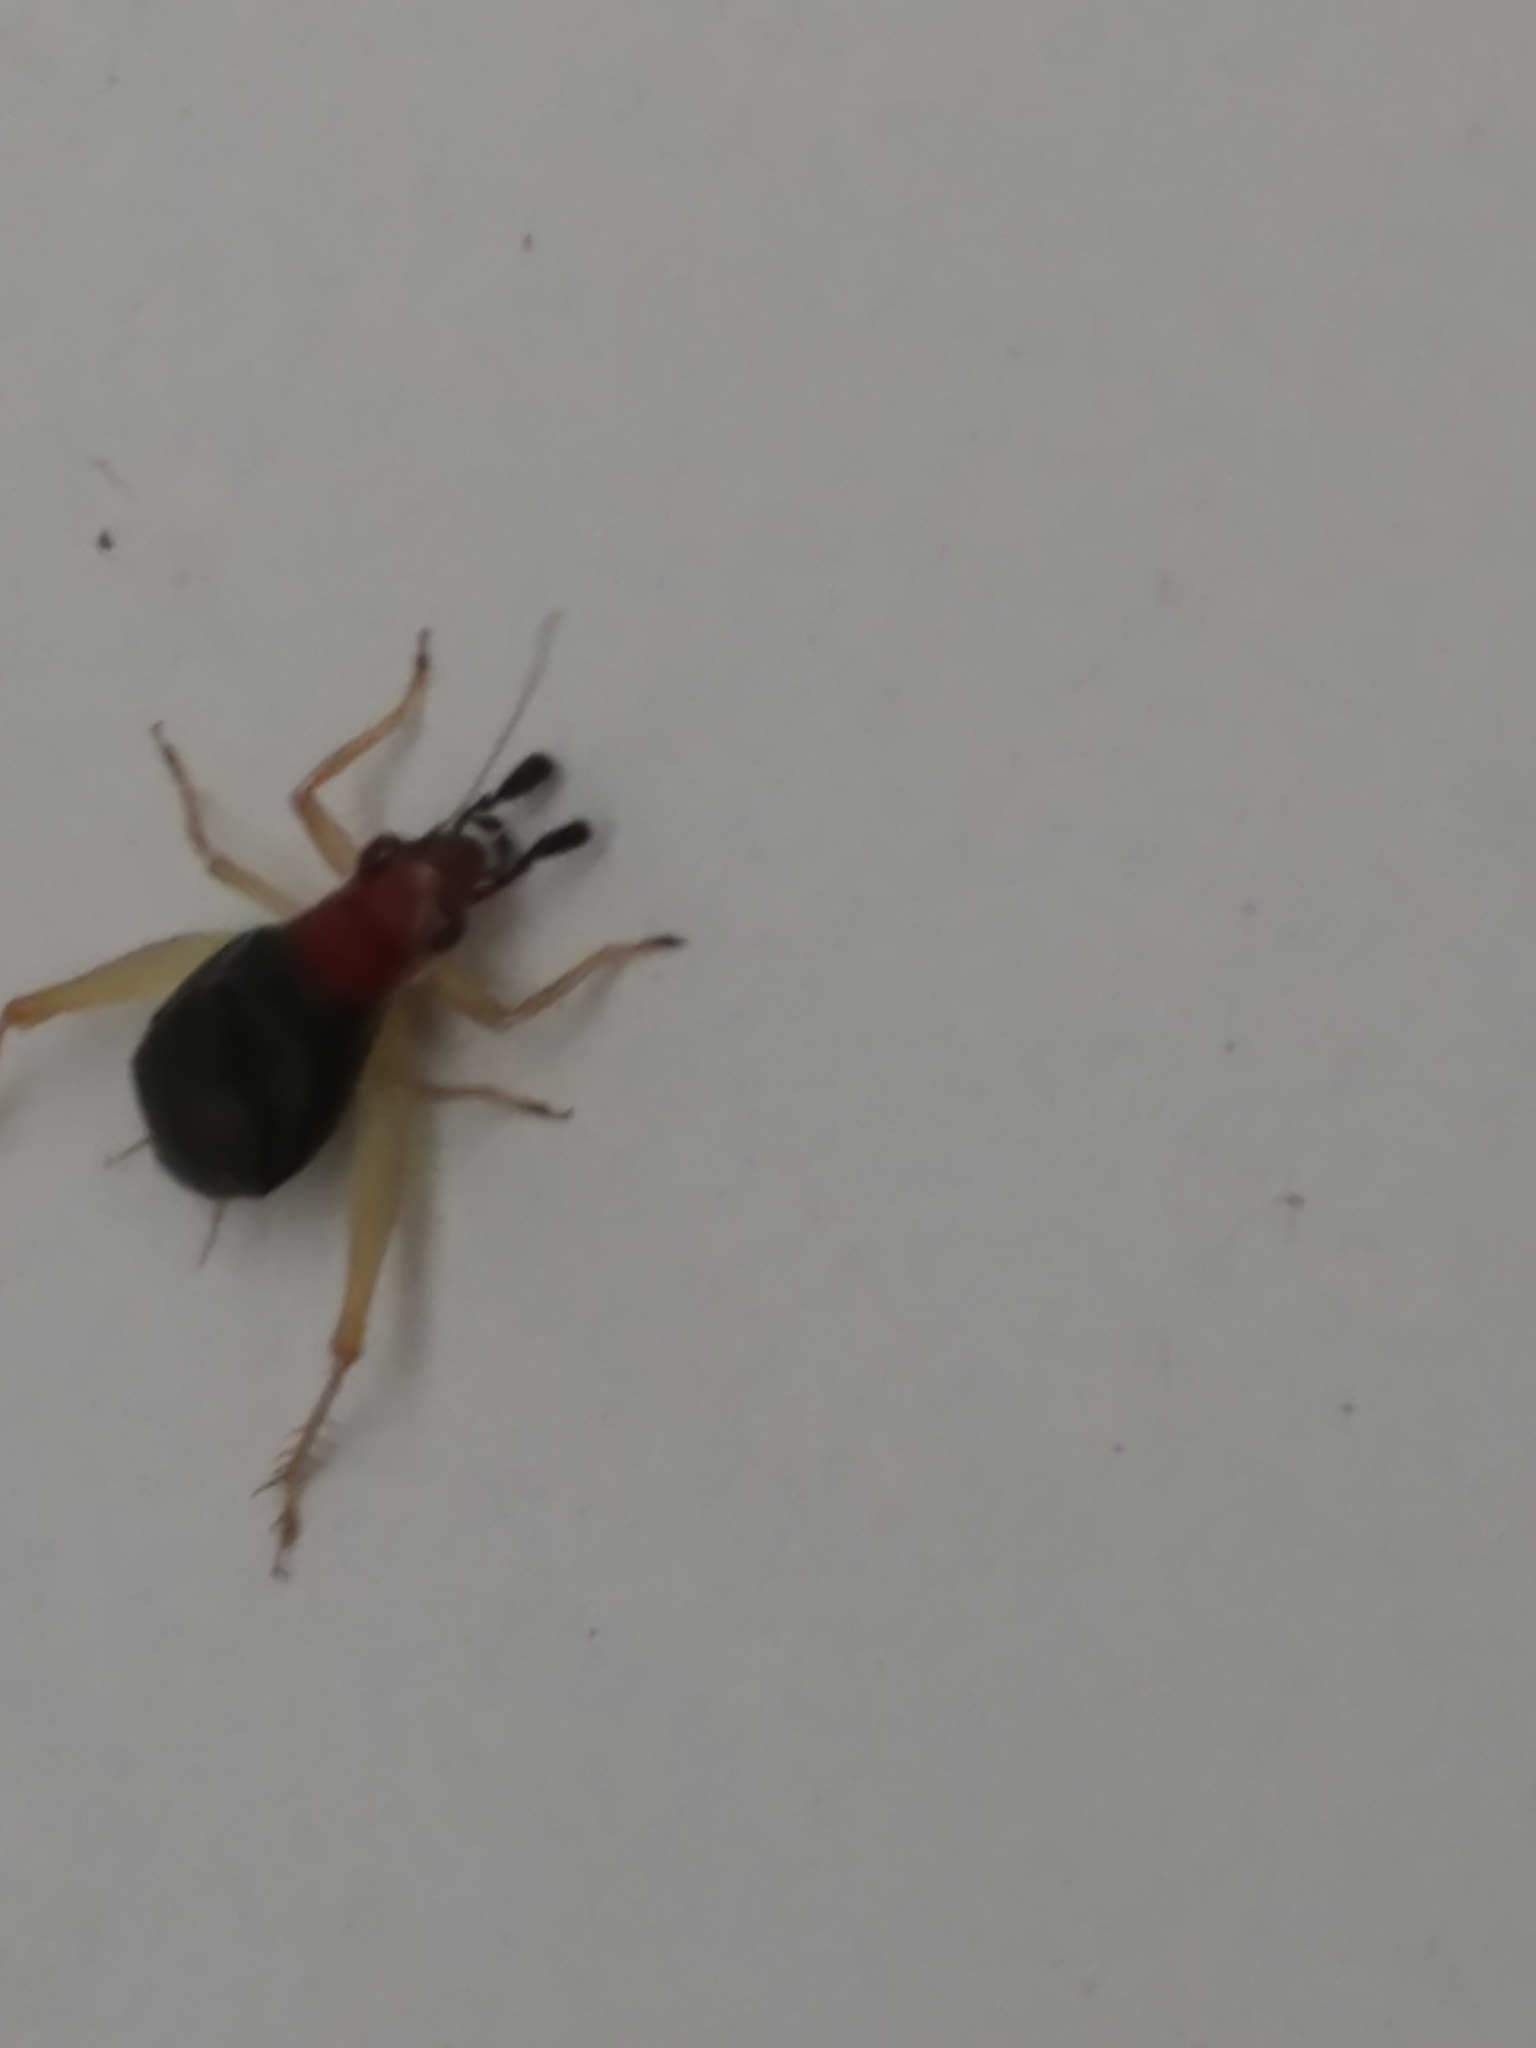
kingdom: Animalia
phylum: Arthropoda
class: Insecta
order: Orthoptera
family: Trigonidiidae
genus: Phyllopalpus
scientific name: Phyllopalpus pulchellus
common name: Handsome trig
